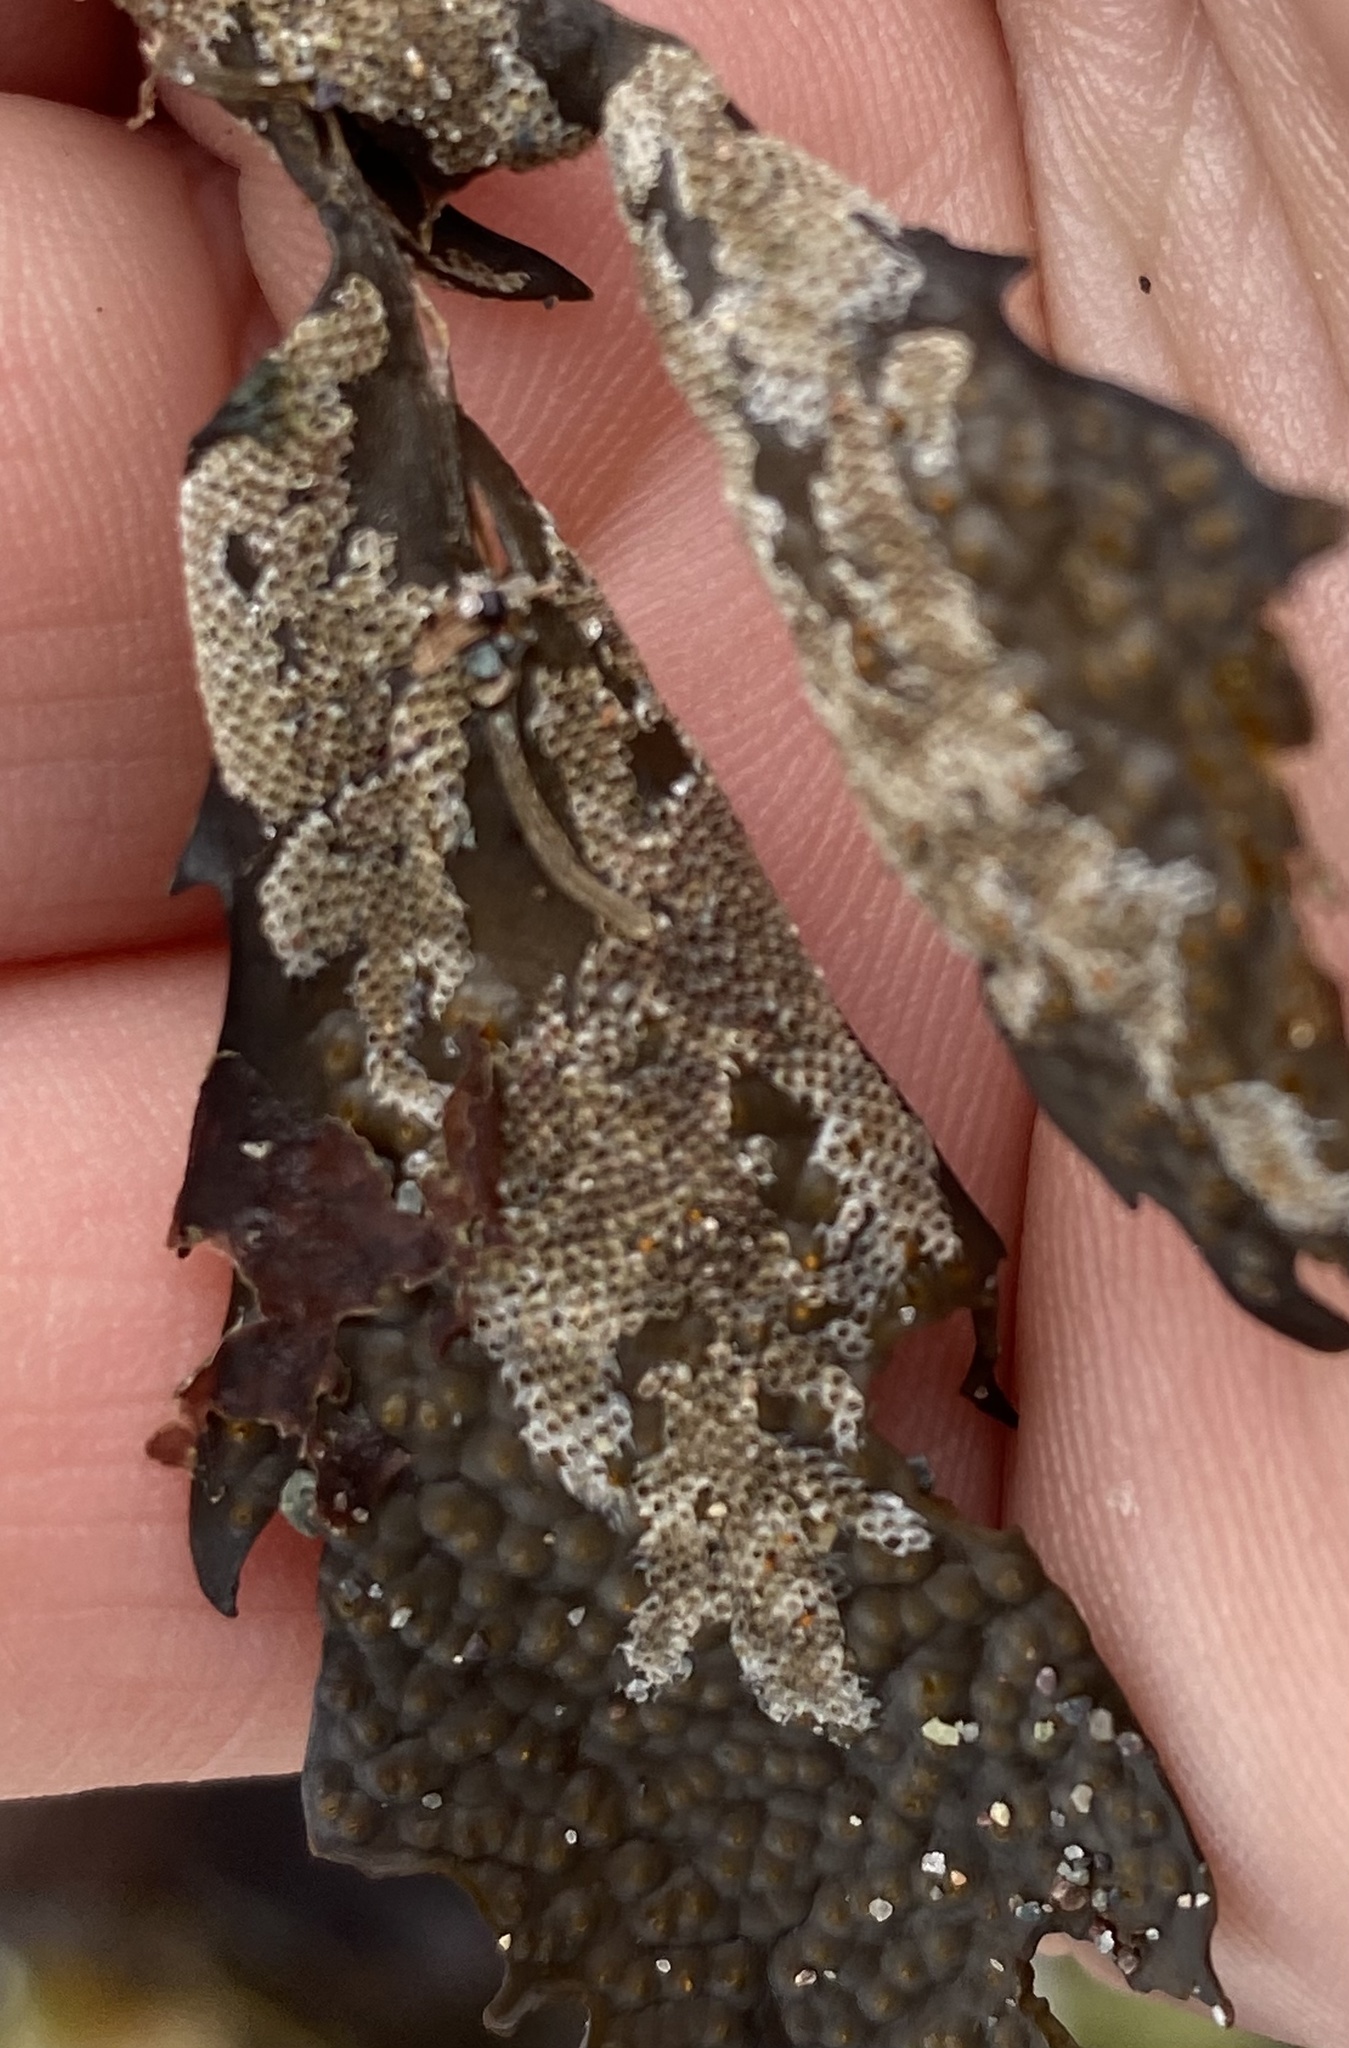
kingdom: Animalia
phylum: Bryozoa
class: Gymnolaemata
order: Cheilostomatida
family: Electridae
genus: Electra
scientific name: Electra pilosa
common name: Hairy sea-mat
